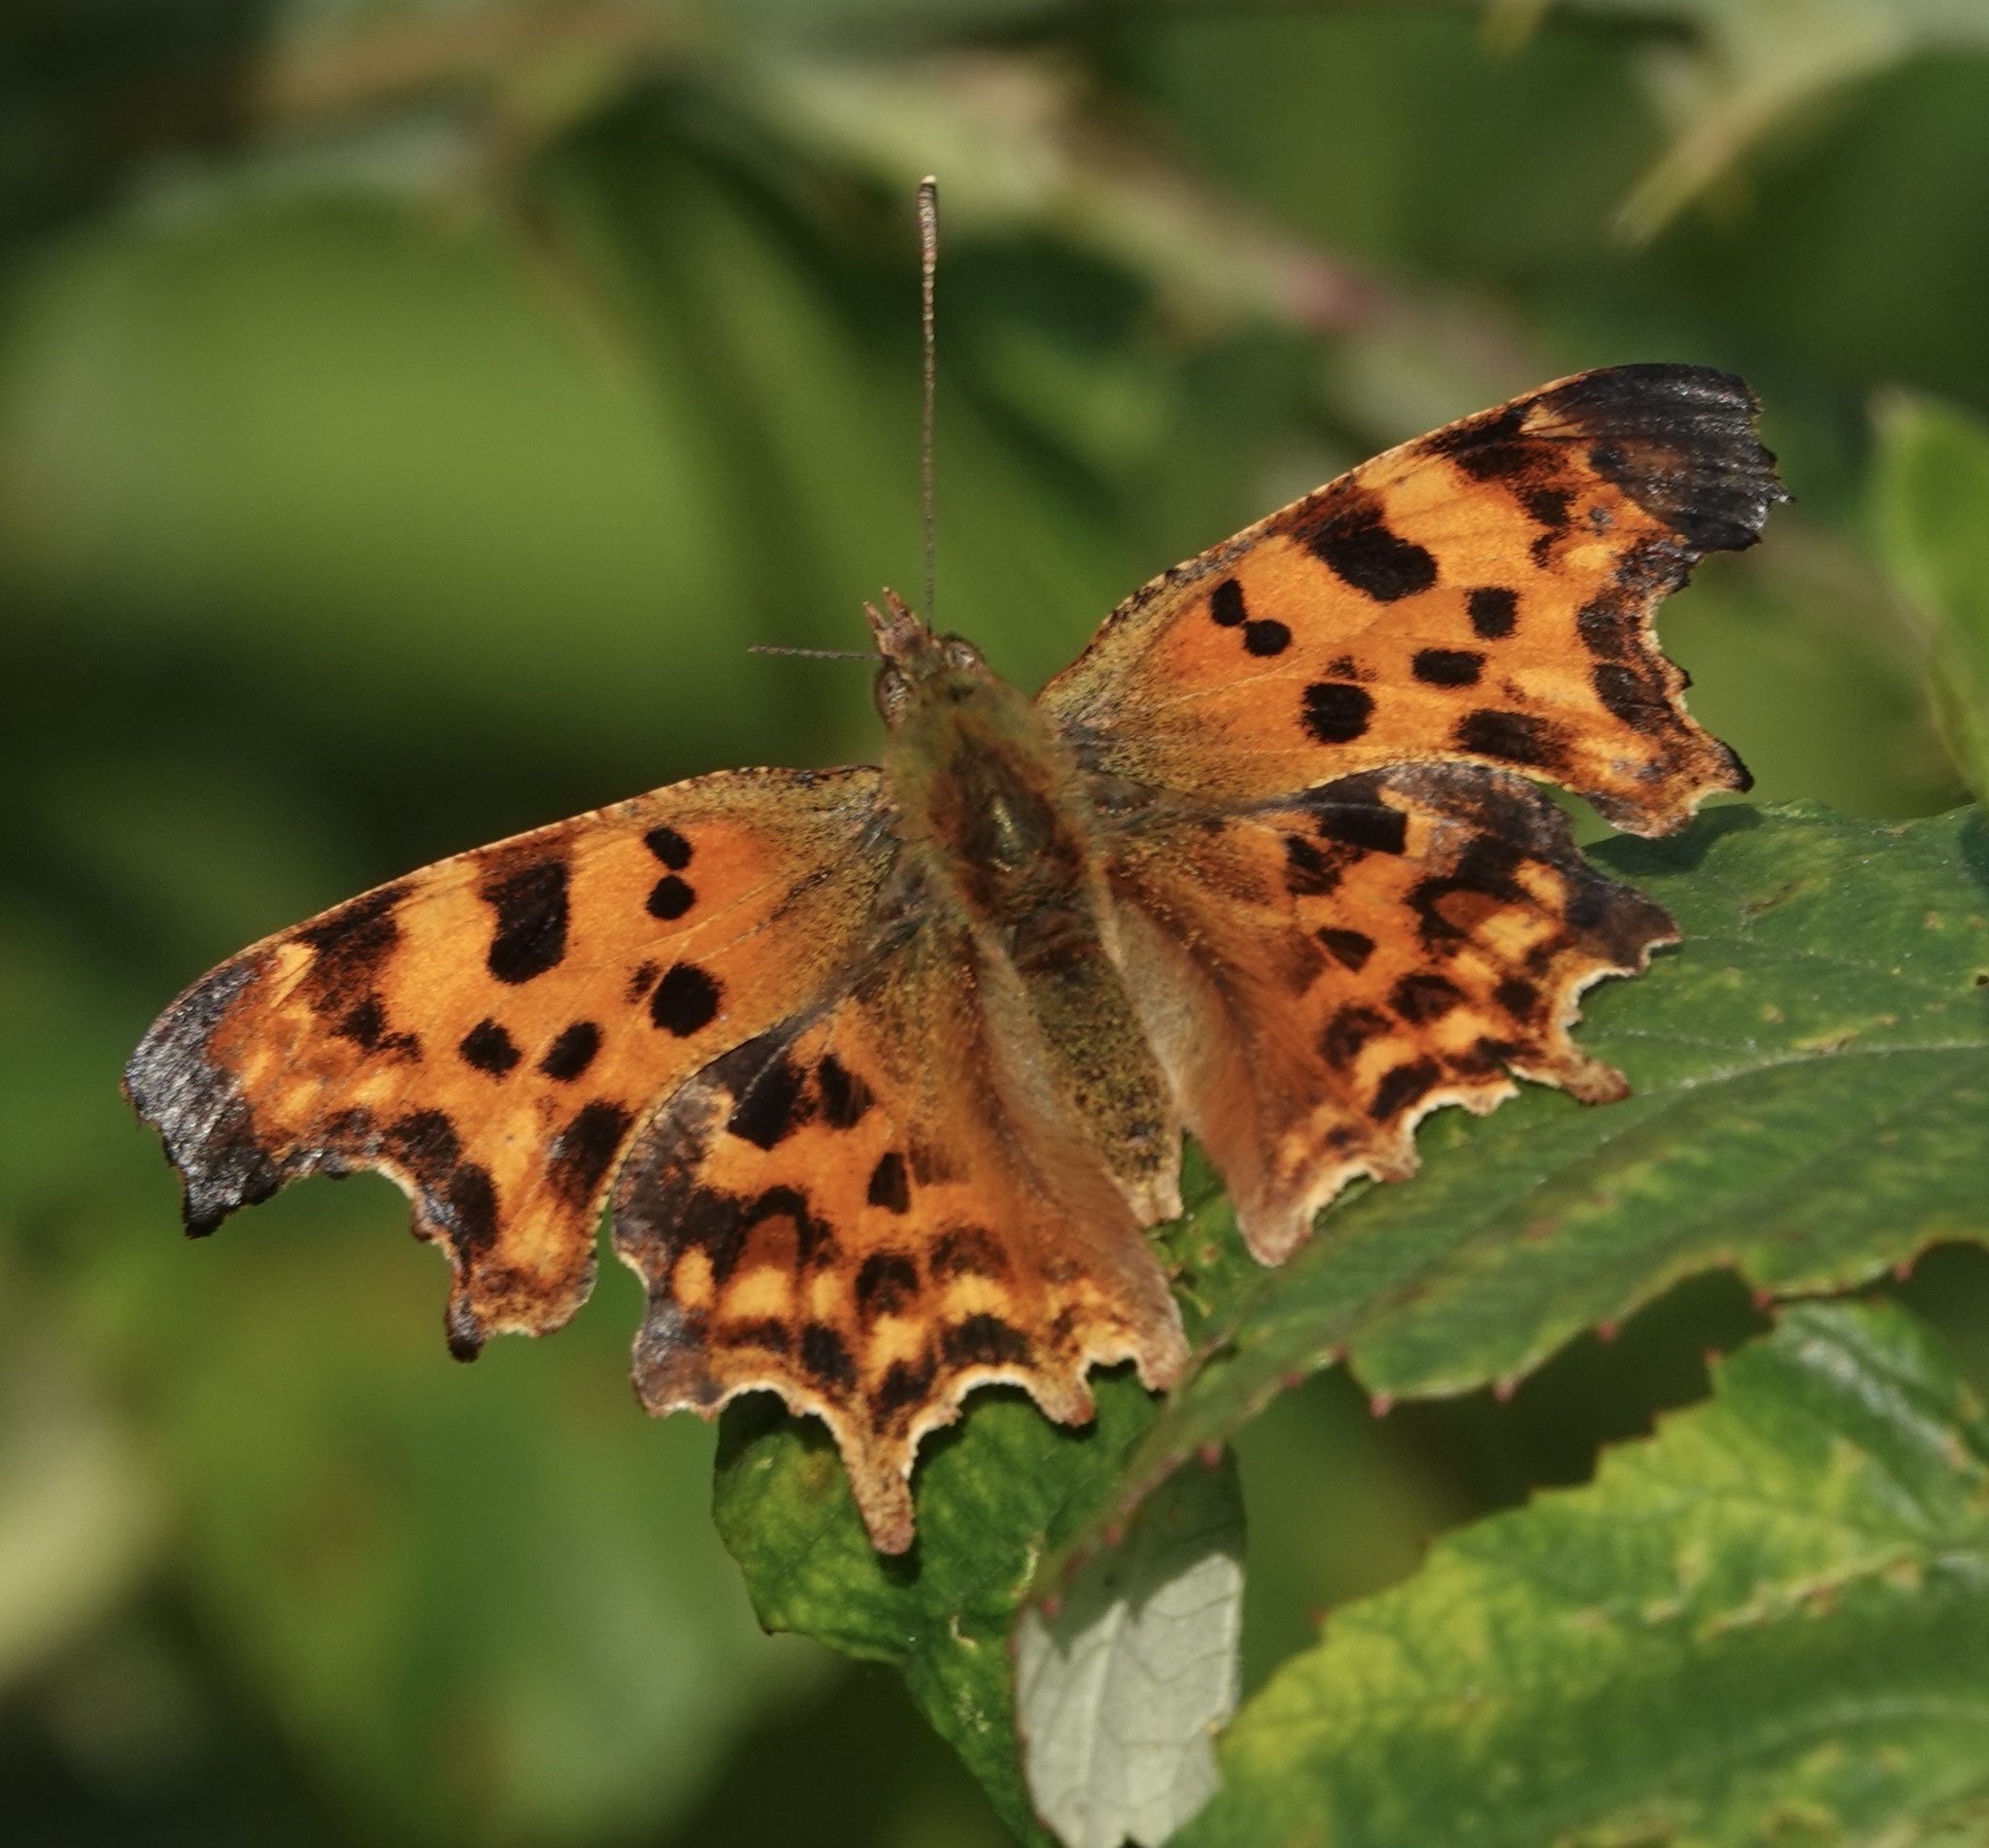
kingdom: Animalia
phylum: Arthropoda
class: Insecta
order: Lepidoptera
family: Nymphalidae
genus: Polygonia
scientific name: Polygonia c-album
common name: Comma
